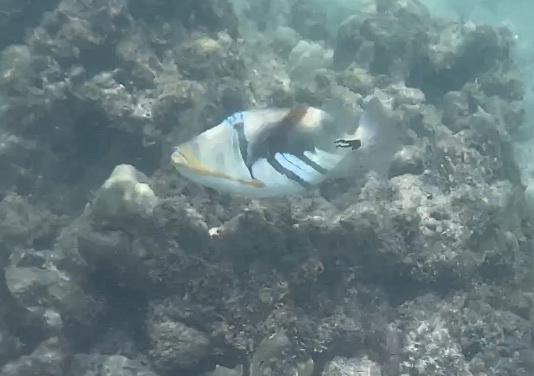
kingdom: Animalia
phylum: Chordata
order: Tetraodontiformes
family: Balistidae
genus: Rhinecanthus
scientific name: Rhinecanthus aculeatus
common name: White-banded triggerfish
